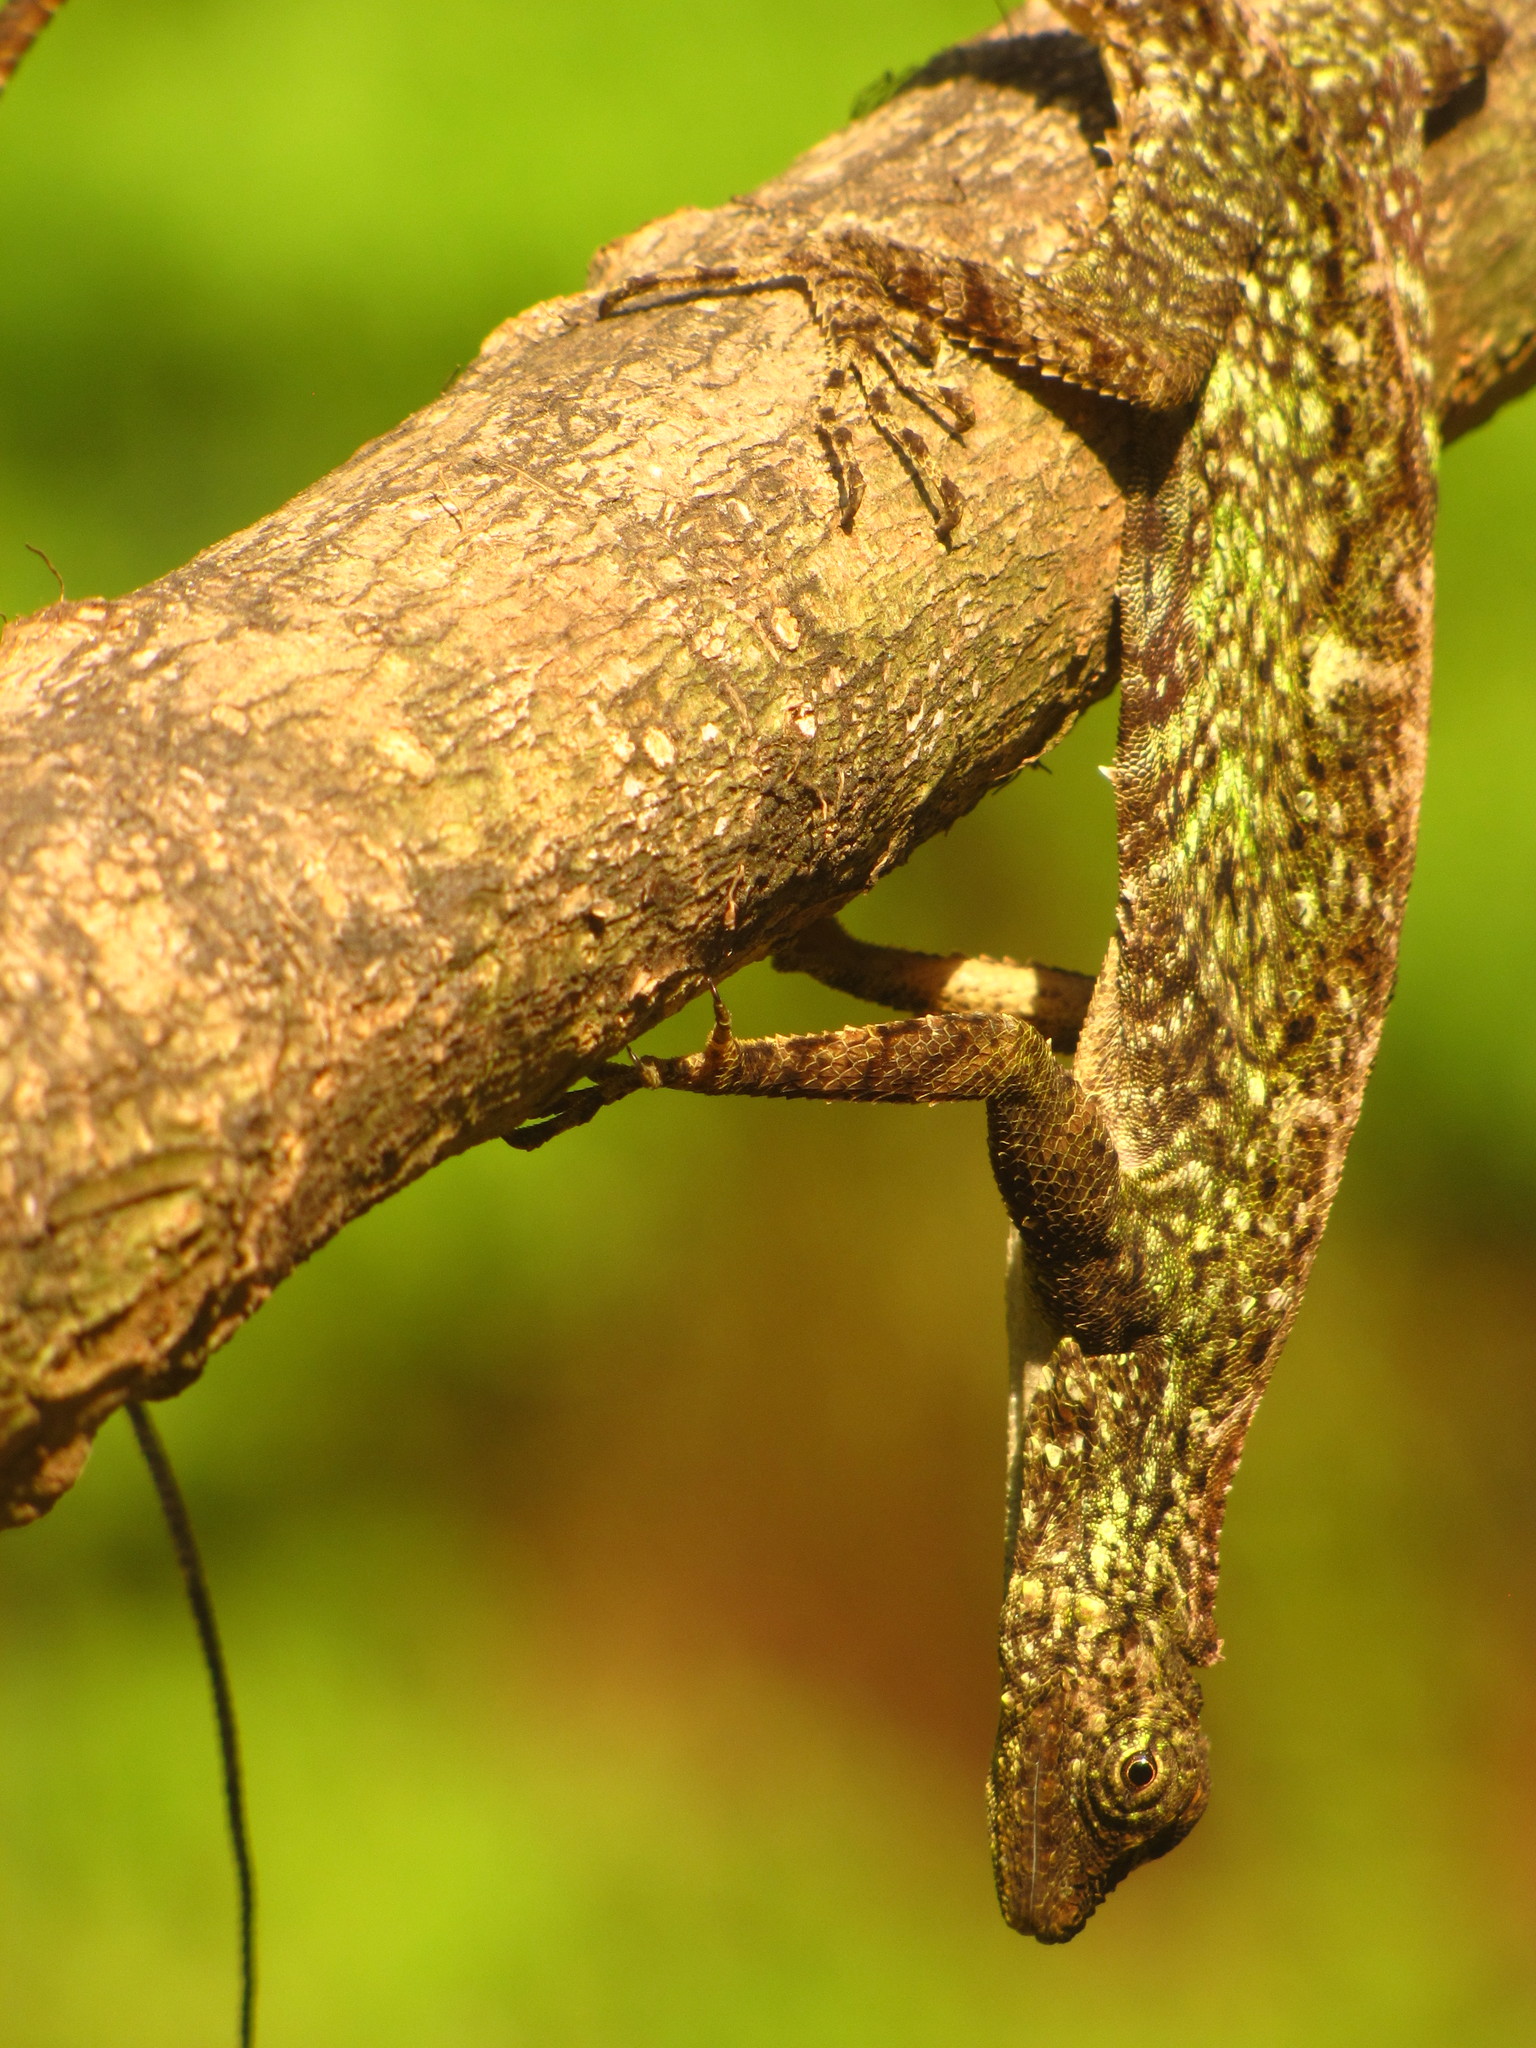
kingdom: Animalia
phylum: Chordata
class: Squamata
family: Agamidae
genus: Draco
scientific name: Draco norvillii
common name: Norvill's flying lizard
